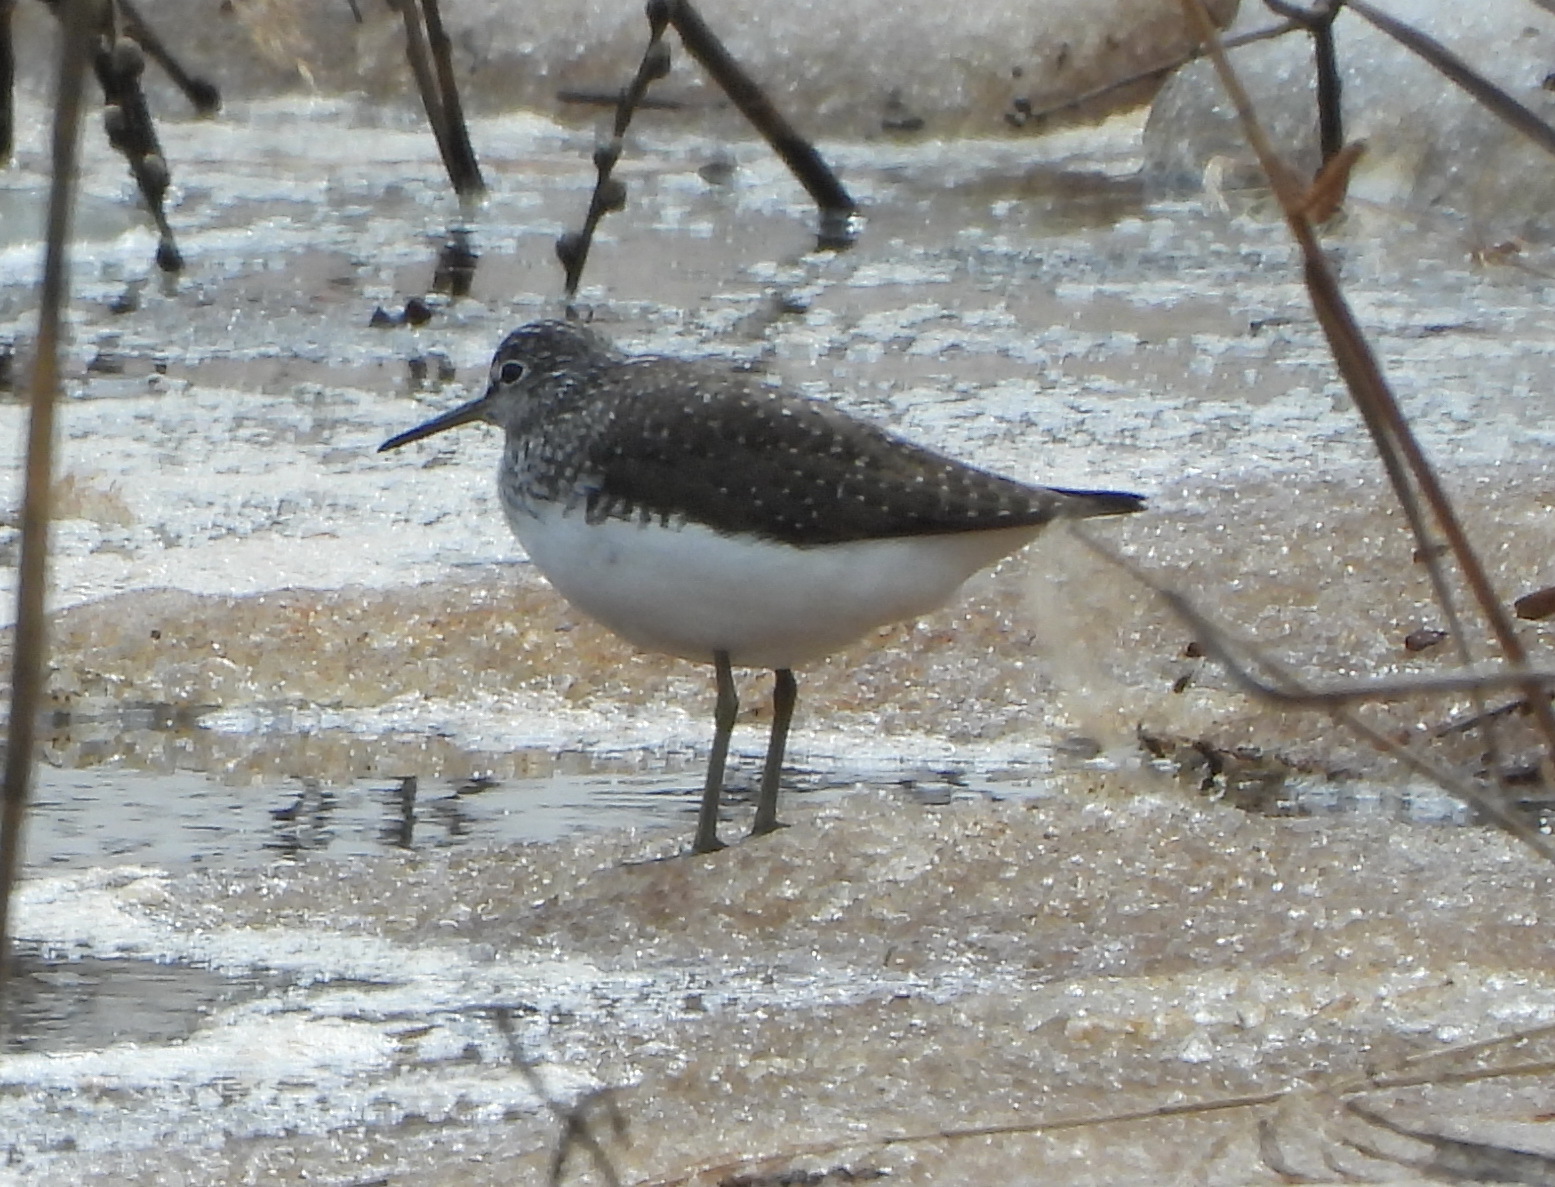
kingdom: Animalia
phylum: Chordata
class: Aves
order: Charadriiformes
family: Scolopacidae
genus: Tringa
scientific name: Tringa ochropus
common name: Green sandpiper
